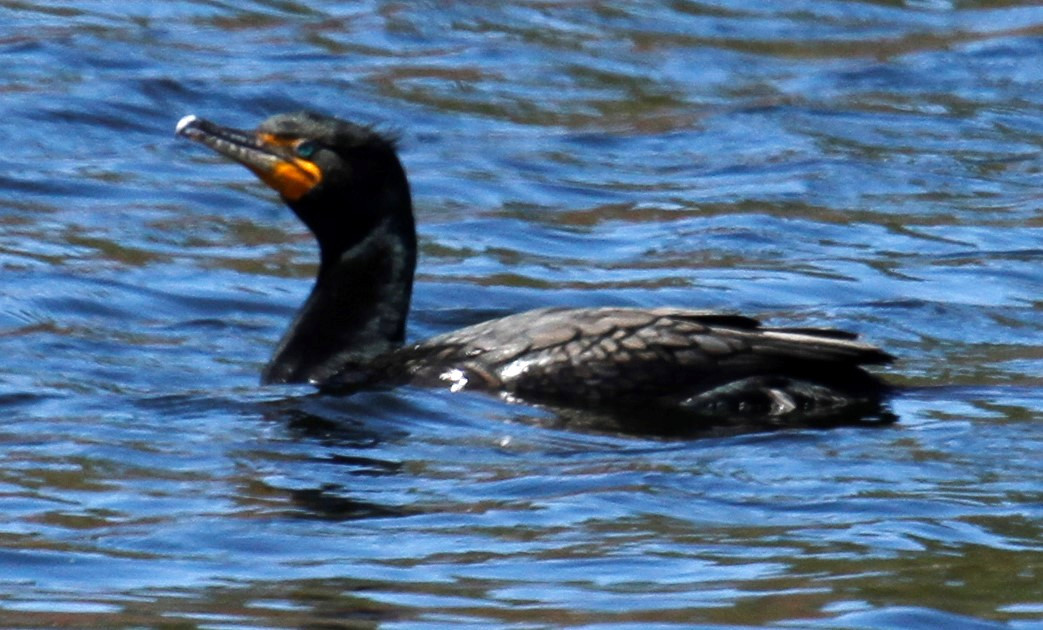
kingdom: Animalia
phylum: Chordata
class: Aves
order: Suliformes
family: Phalacrocoracidae
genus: Phalacrocorax
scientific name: Phalacrocorax auritus
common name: Double-crested cormorant
